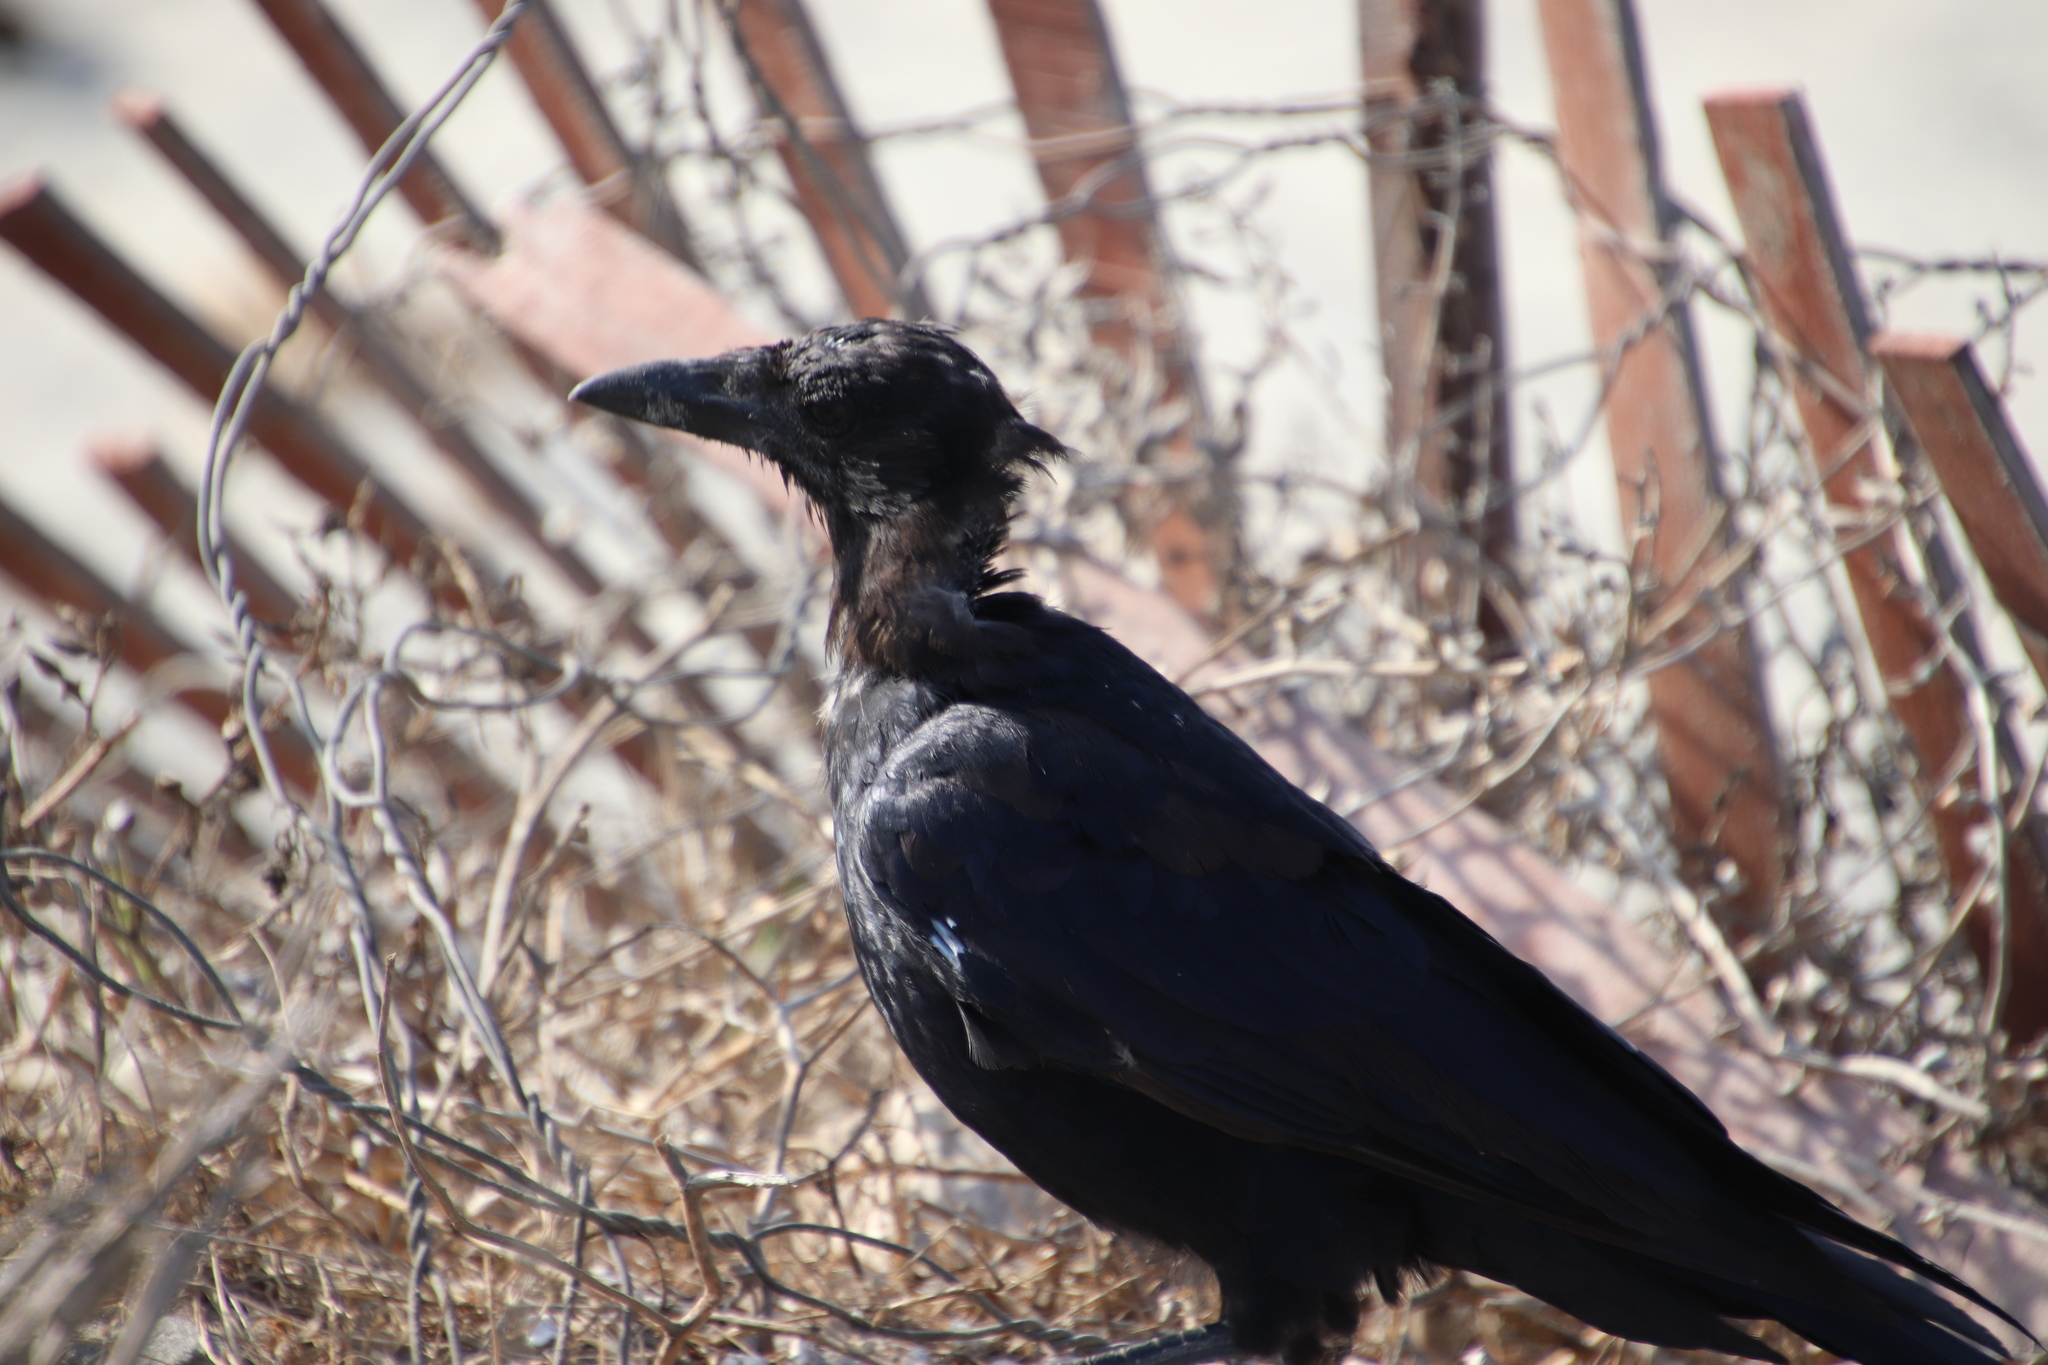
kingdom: Animalia
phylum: Chordata
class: Aves
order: Passeriformes
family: Corvidae
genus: Corvus
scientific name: Corvus brachyrhynchos
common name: American crow
